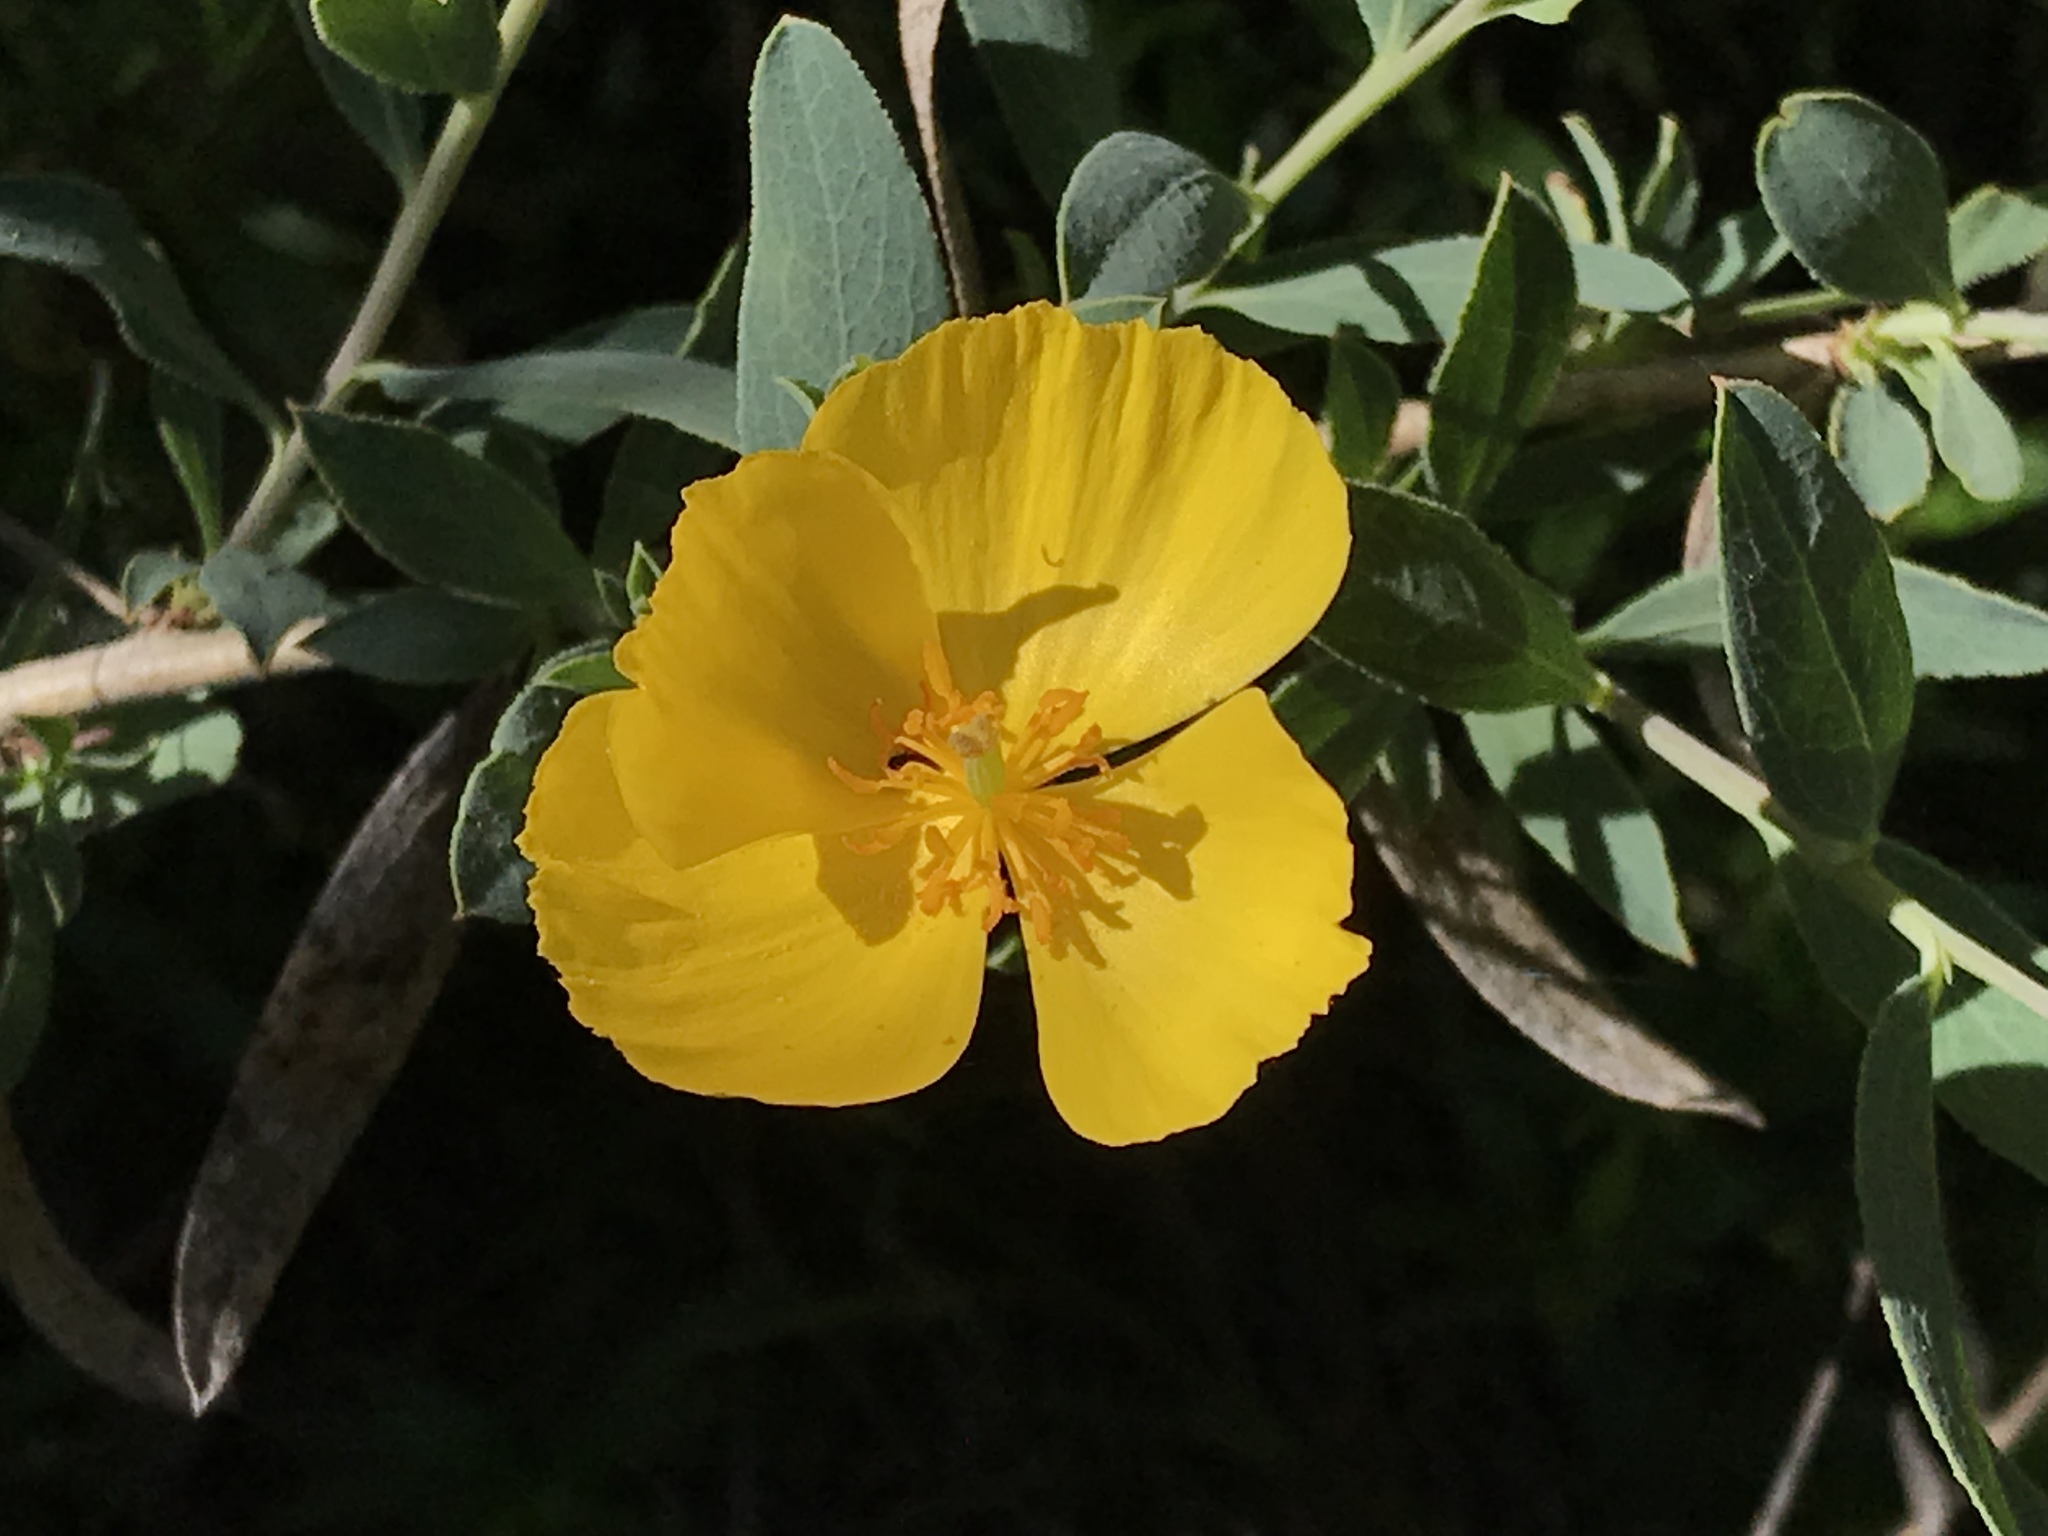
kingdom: Plantae
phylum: Tracheophyta
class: Magnoliopsida
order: Ranunculales
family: Papaveraceae
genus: Dendromecon
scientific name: Dendromecon rigida
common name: Tree poppy
